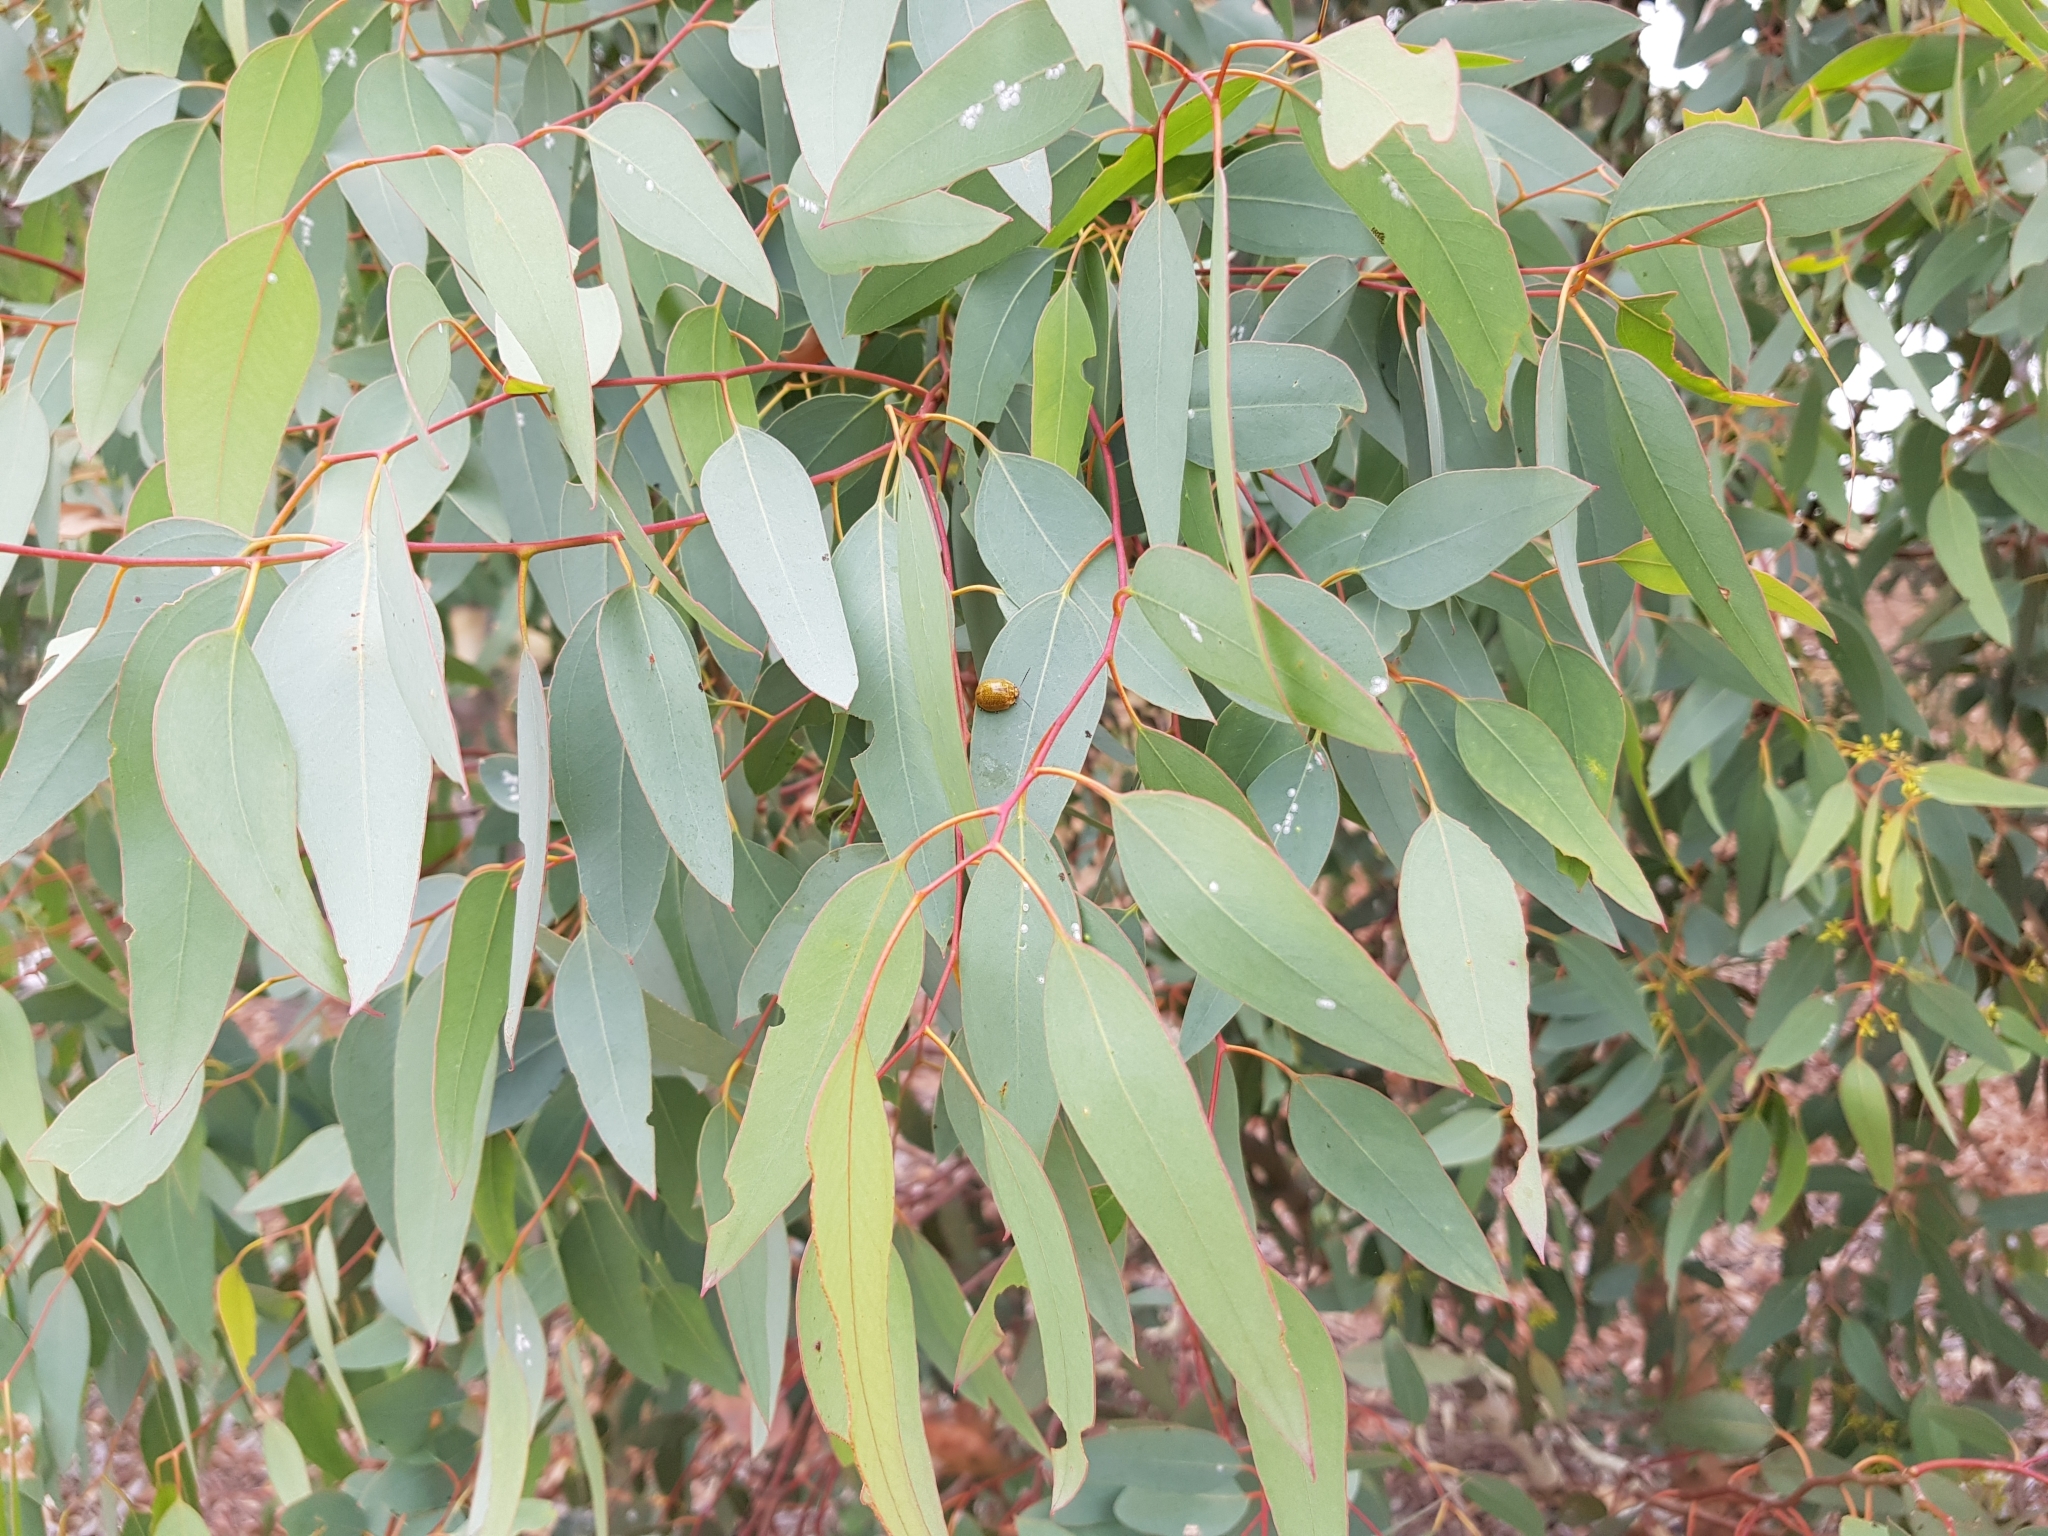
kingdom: Animalia
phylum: Arthropoda
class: Insecta
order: Coleoptera
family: Chrysomelidae
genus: Paropsisterna
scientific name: Paropsisterna cloelia
